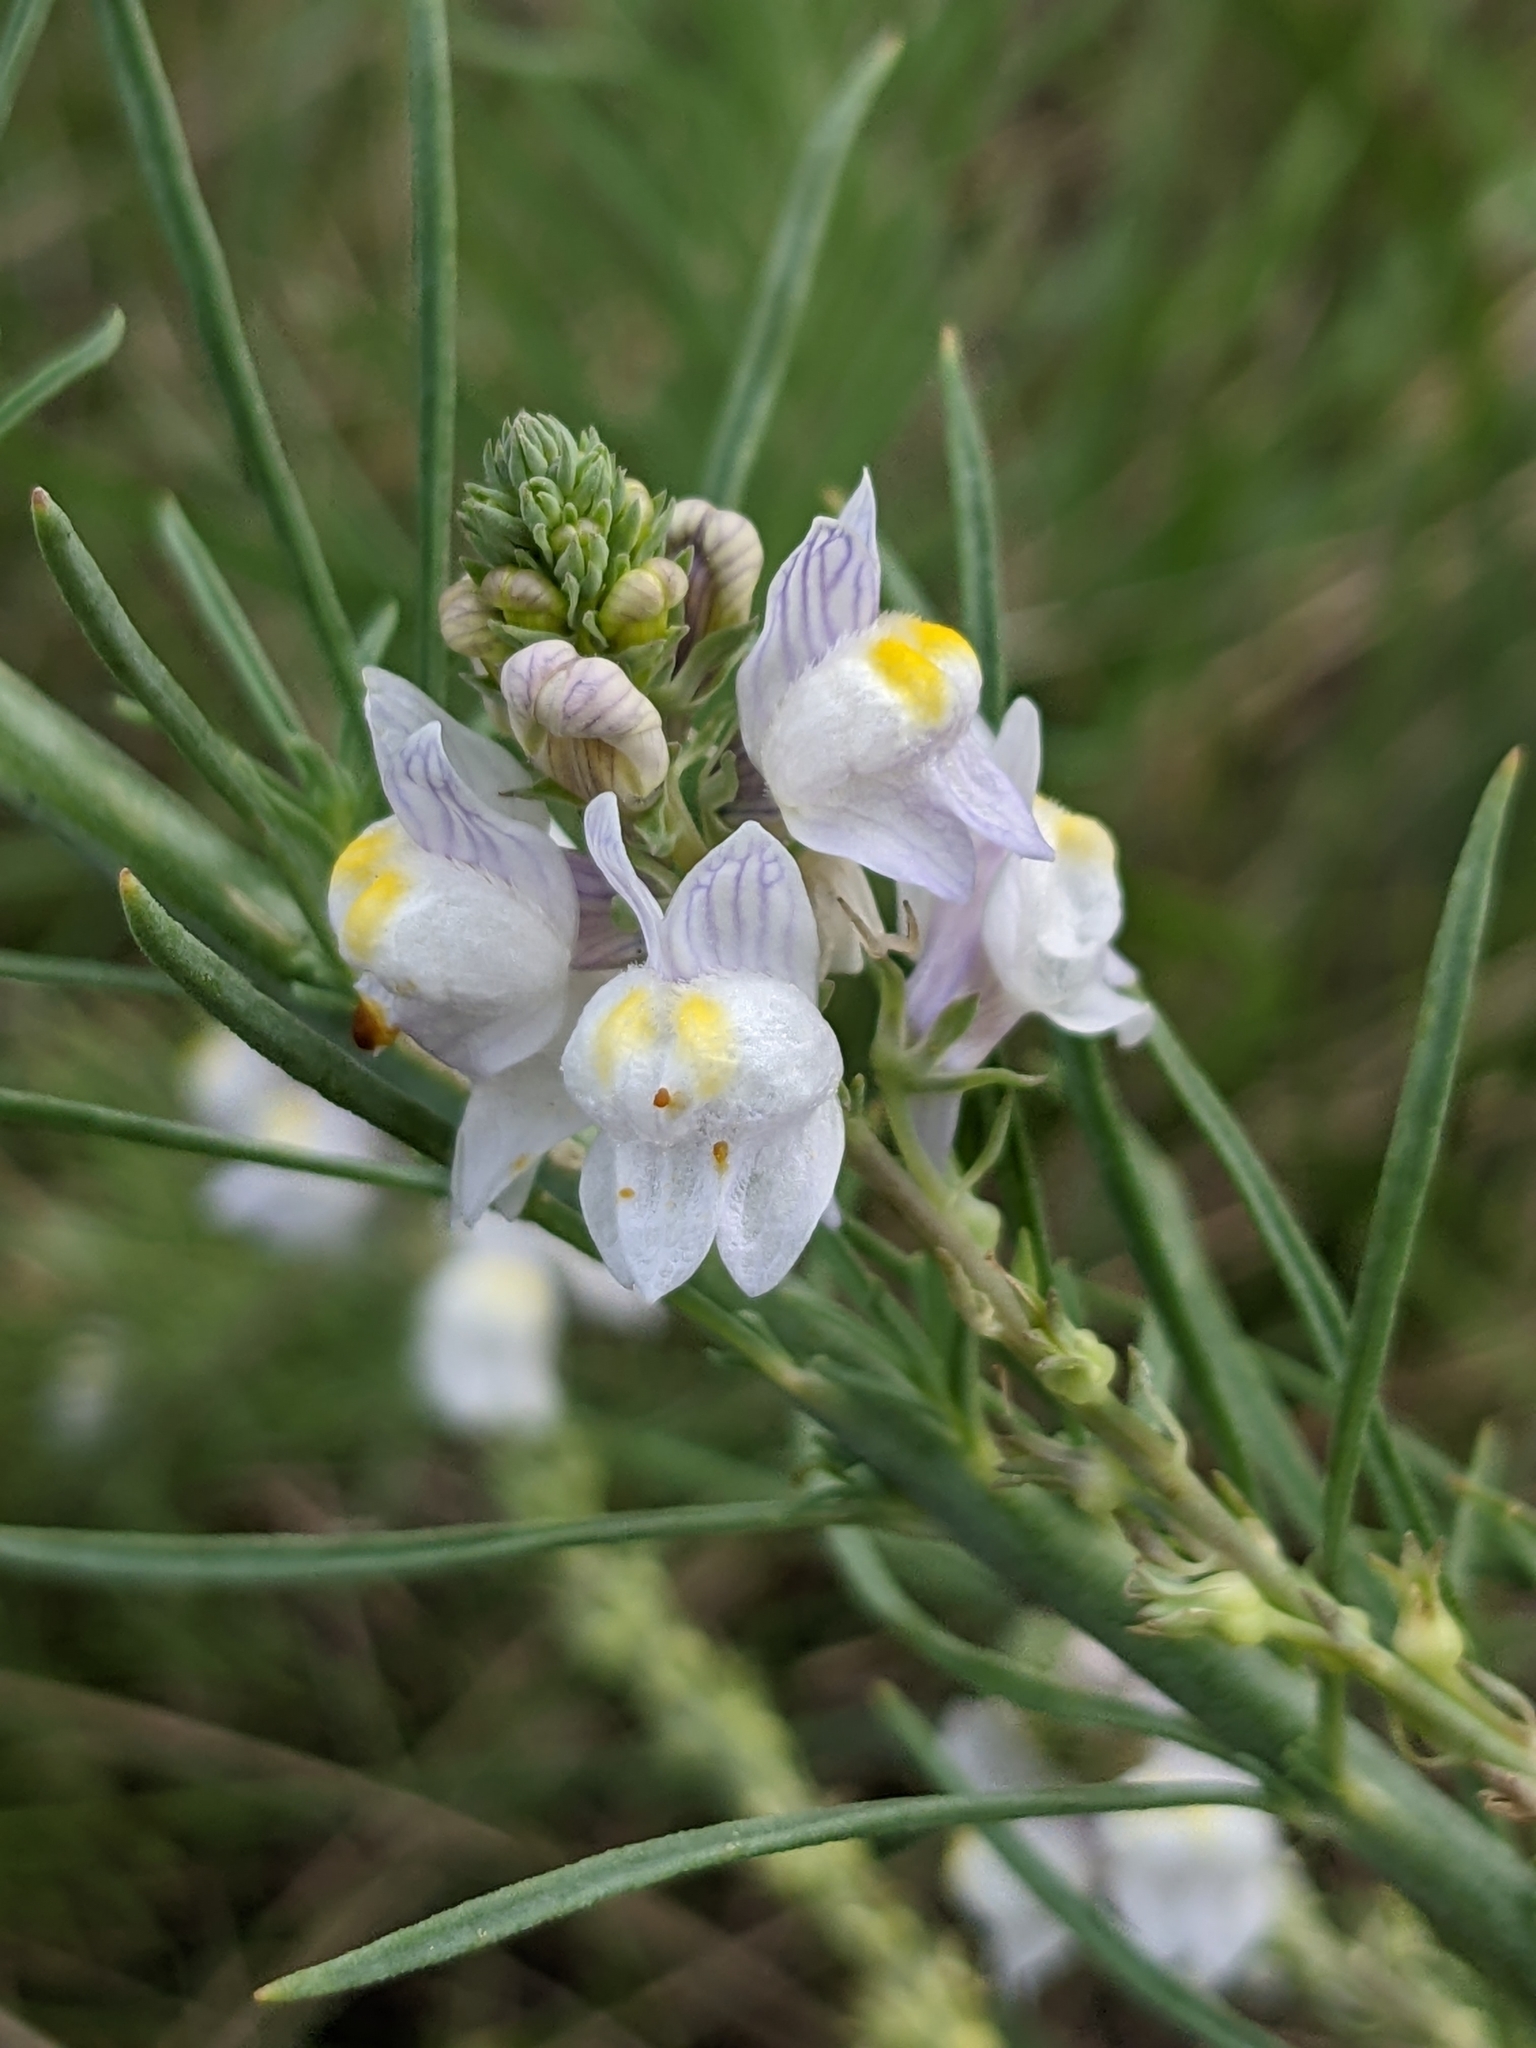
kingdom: Plantae
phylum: Tracheophyta
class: Magnoliopsida
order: Lamiales
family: Plantaginaceae
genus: Linaria
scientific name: Linaria repens
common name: Pale toadflax
